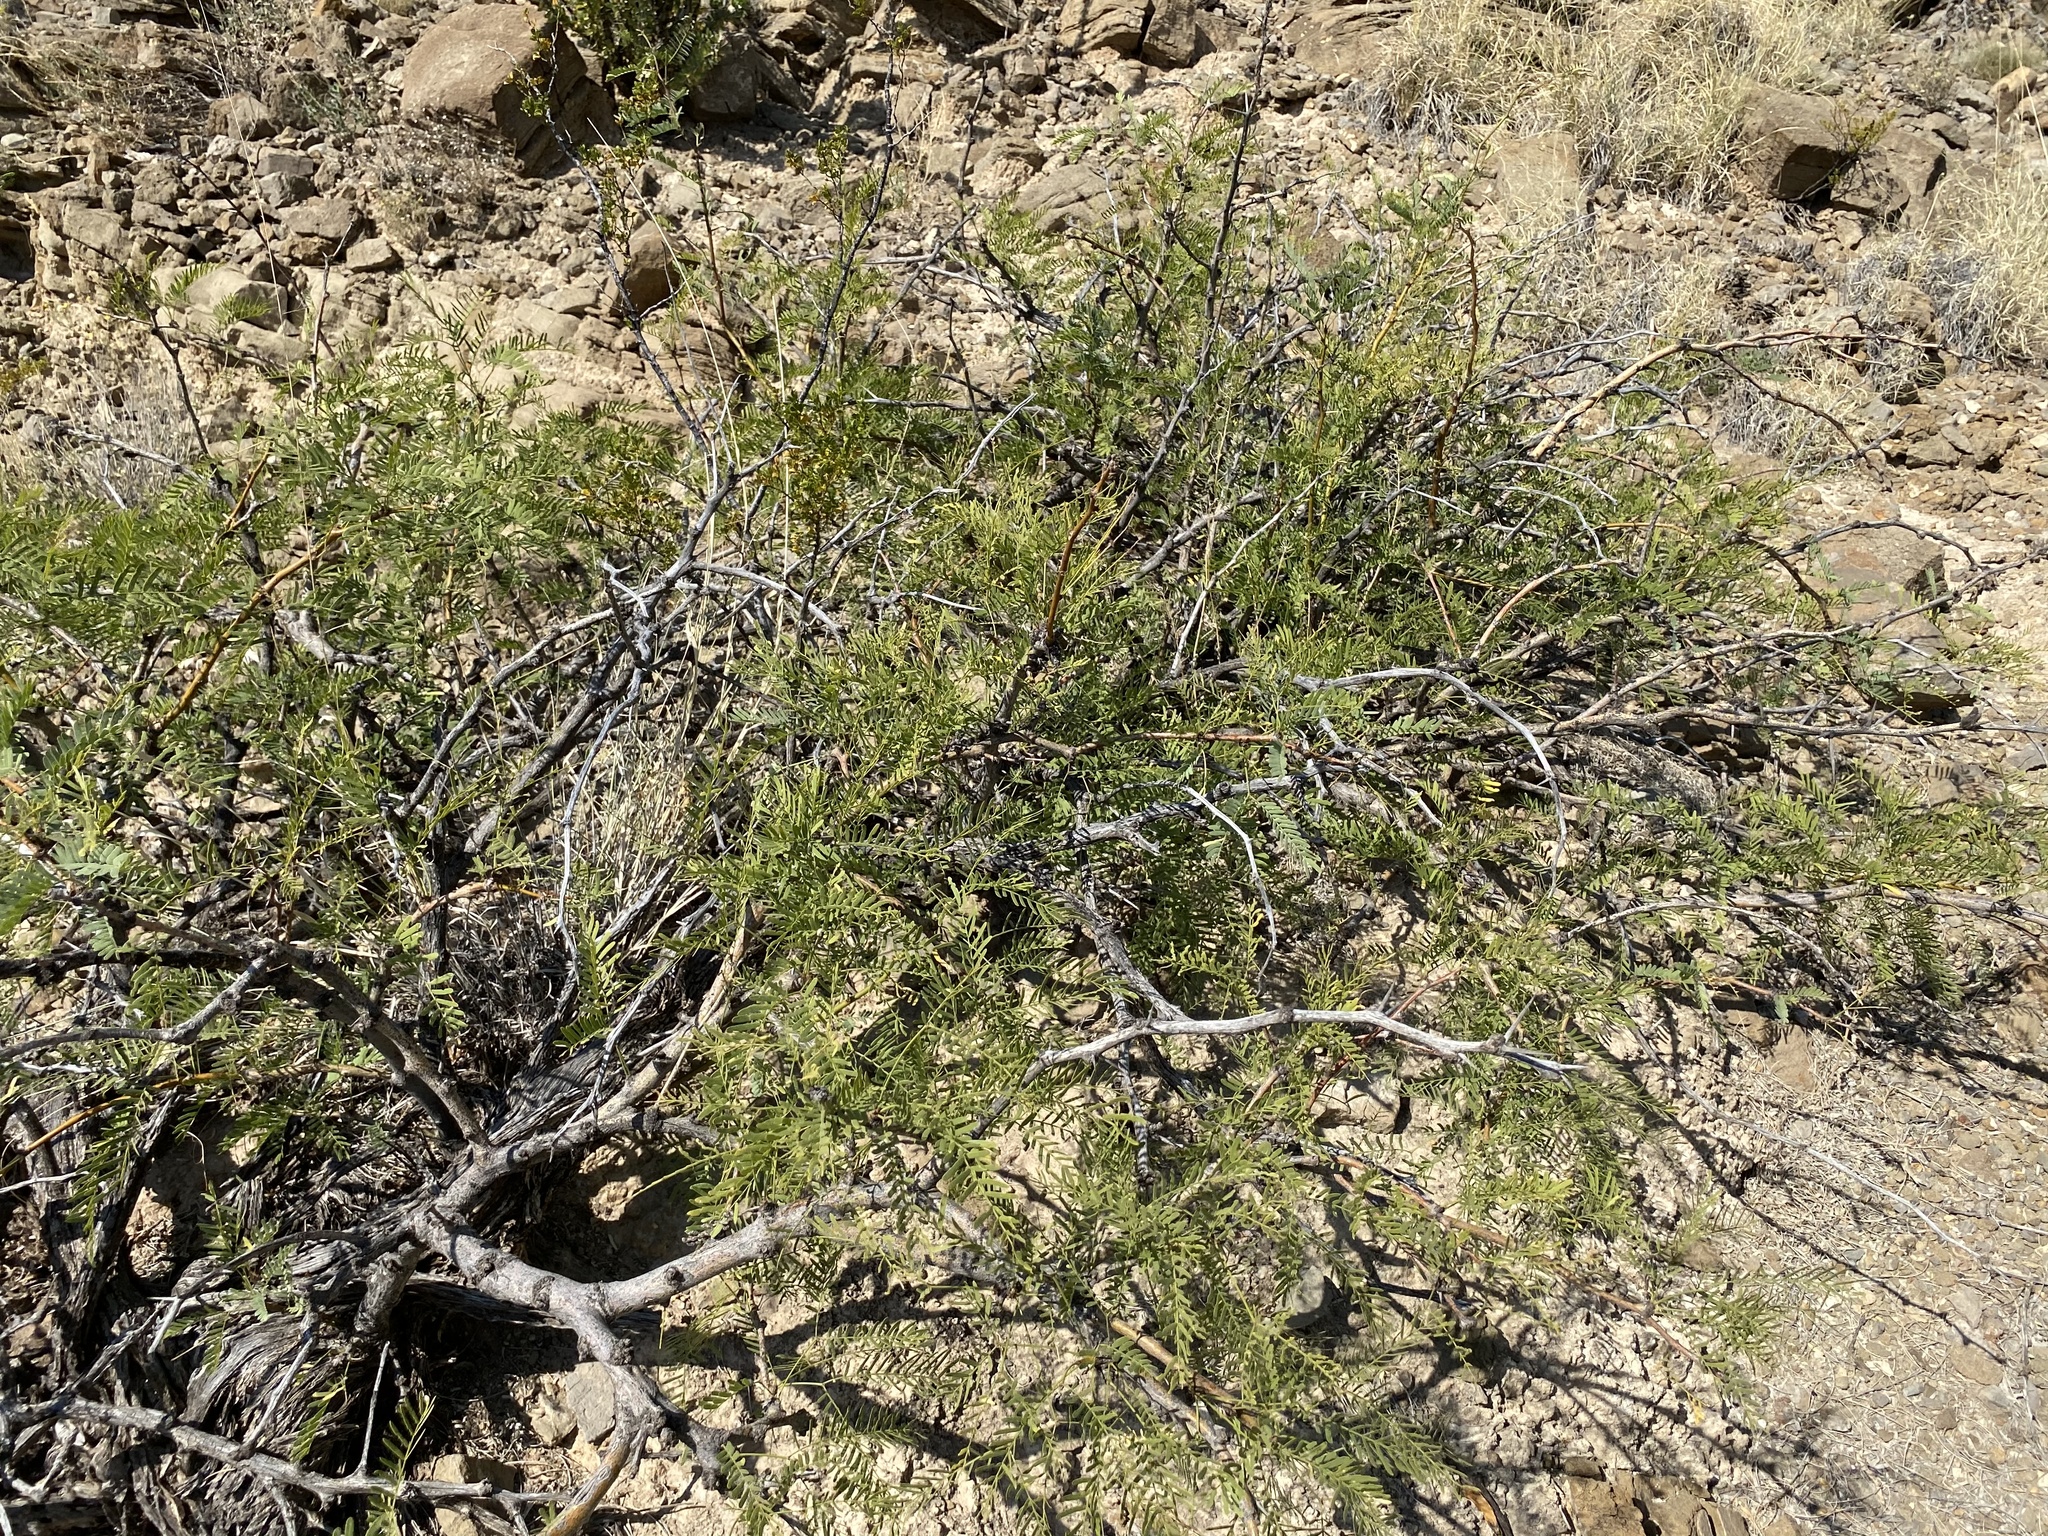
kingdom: Plantae
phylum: Tracheophyta
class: Magnoliopsida
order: Fabales
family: Fabaceae
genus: Prosopis
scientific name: Prosopis glandulosa
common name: Honey mesquite
